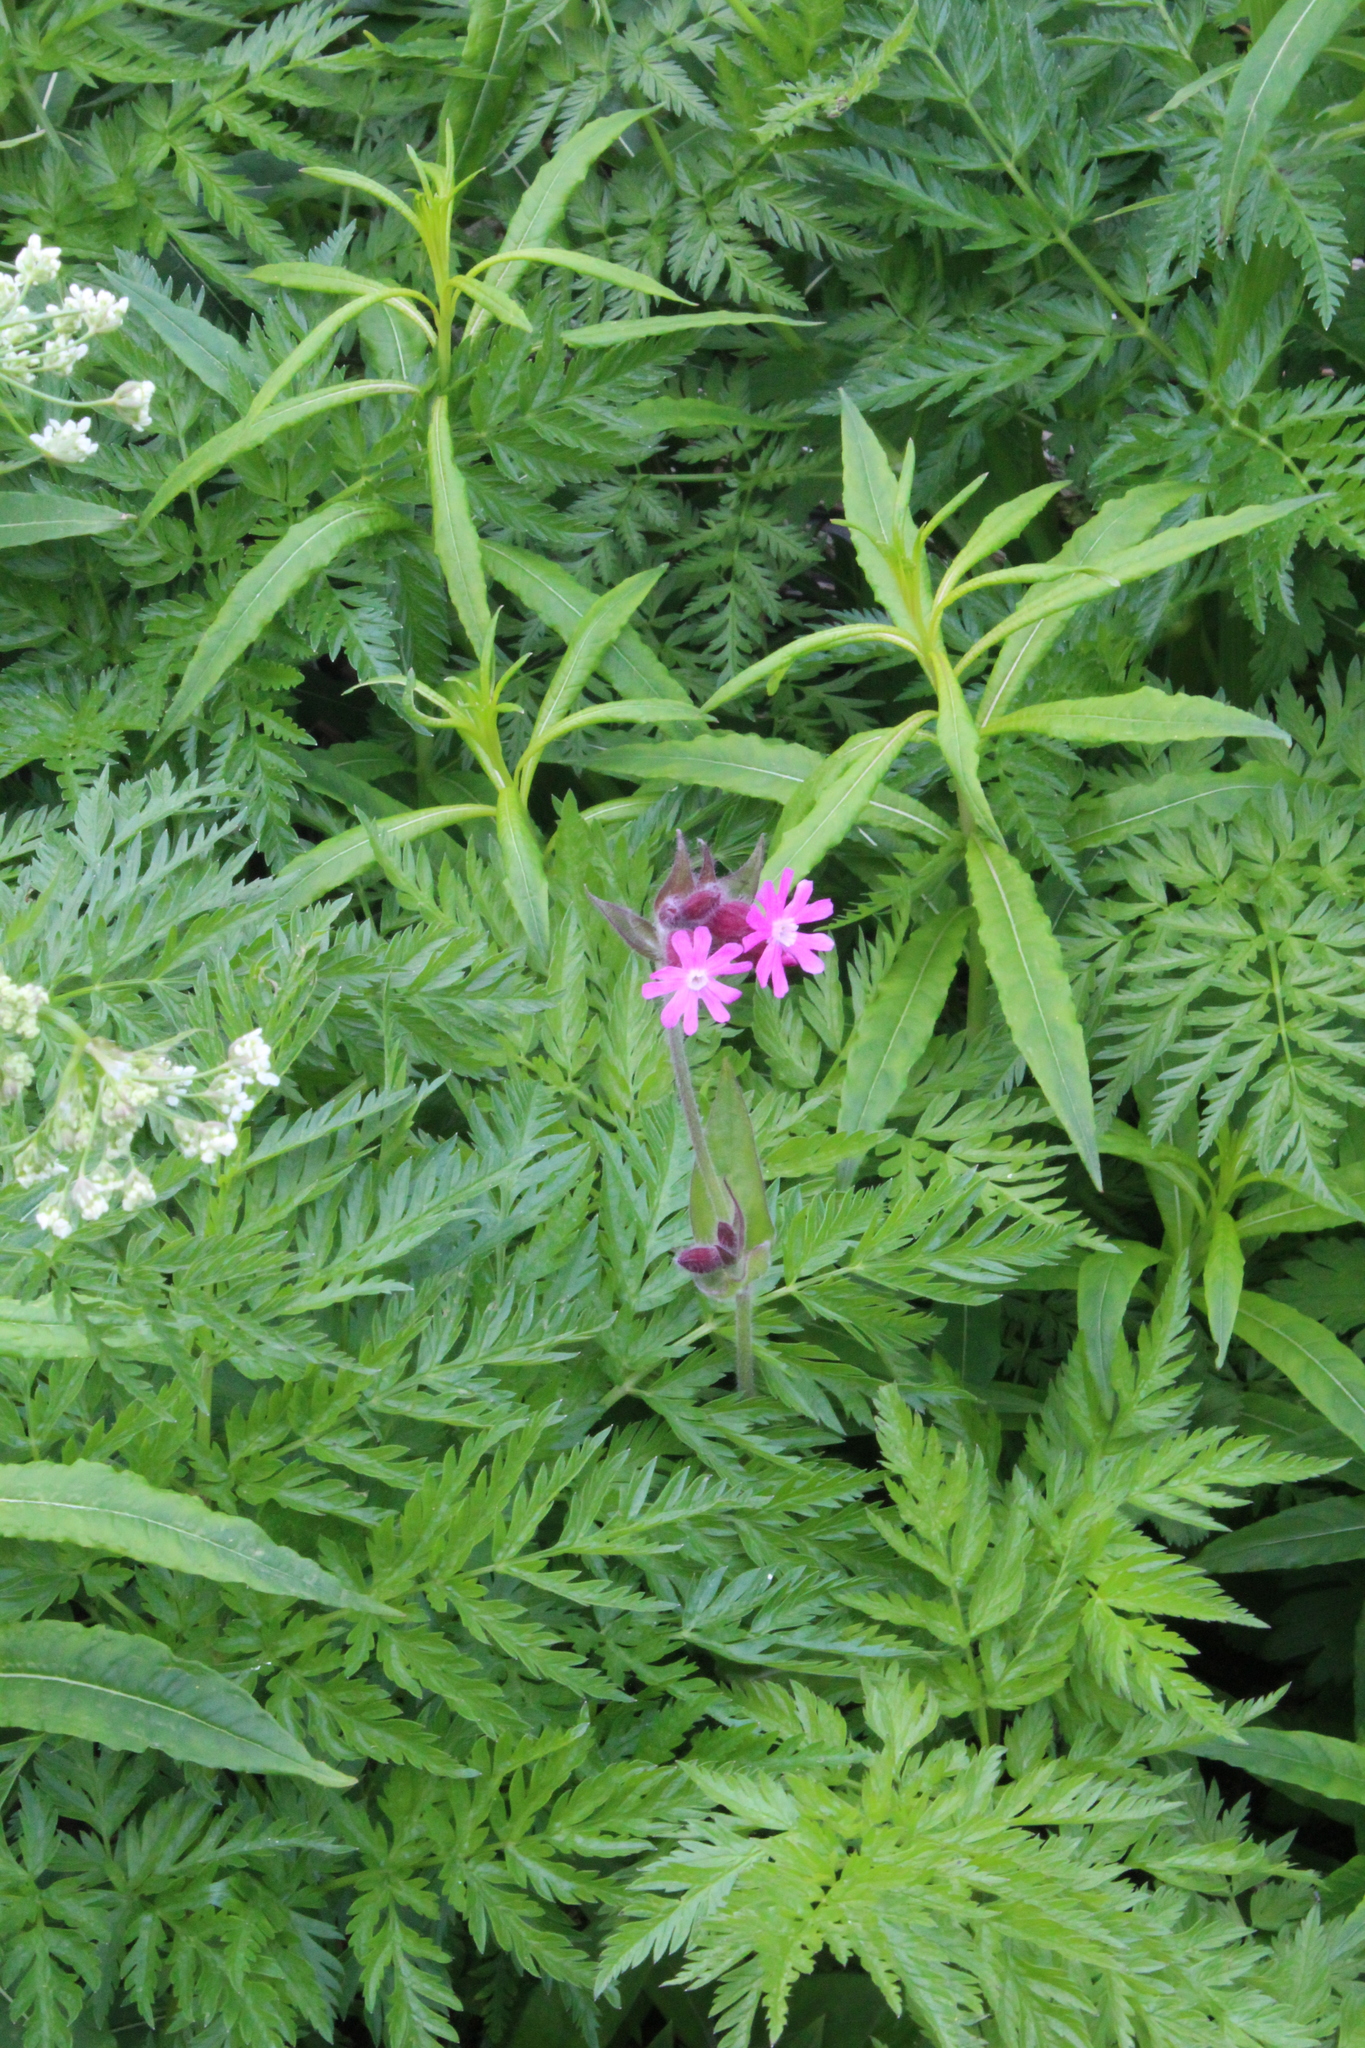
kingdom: Plantae
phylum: Tracheophyta
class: Magnoliopsida
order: Caryophyllales
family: Caryophyllaceae
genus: Silene
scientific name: Silene dioica
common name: Red campion
